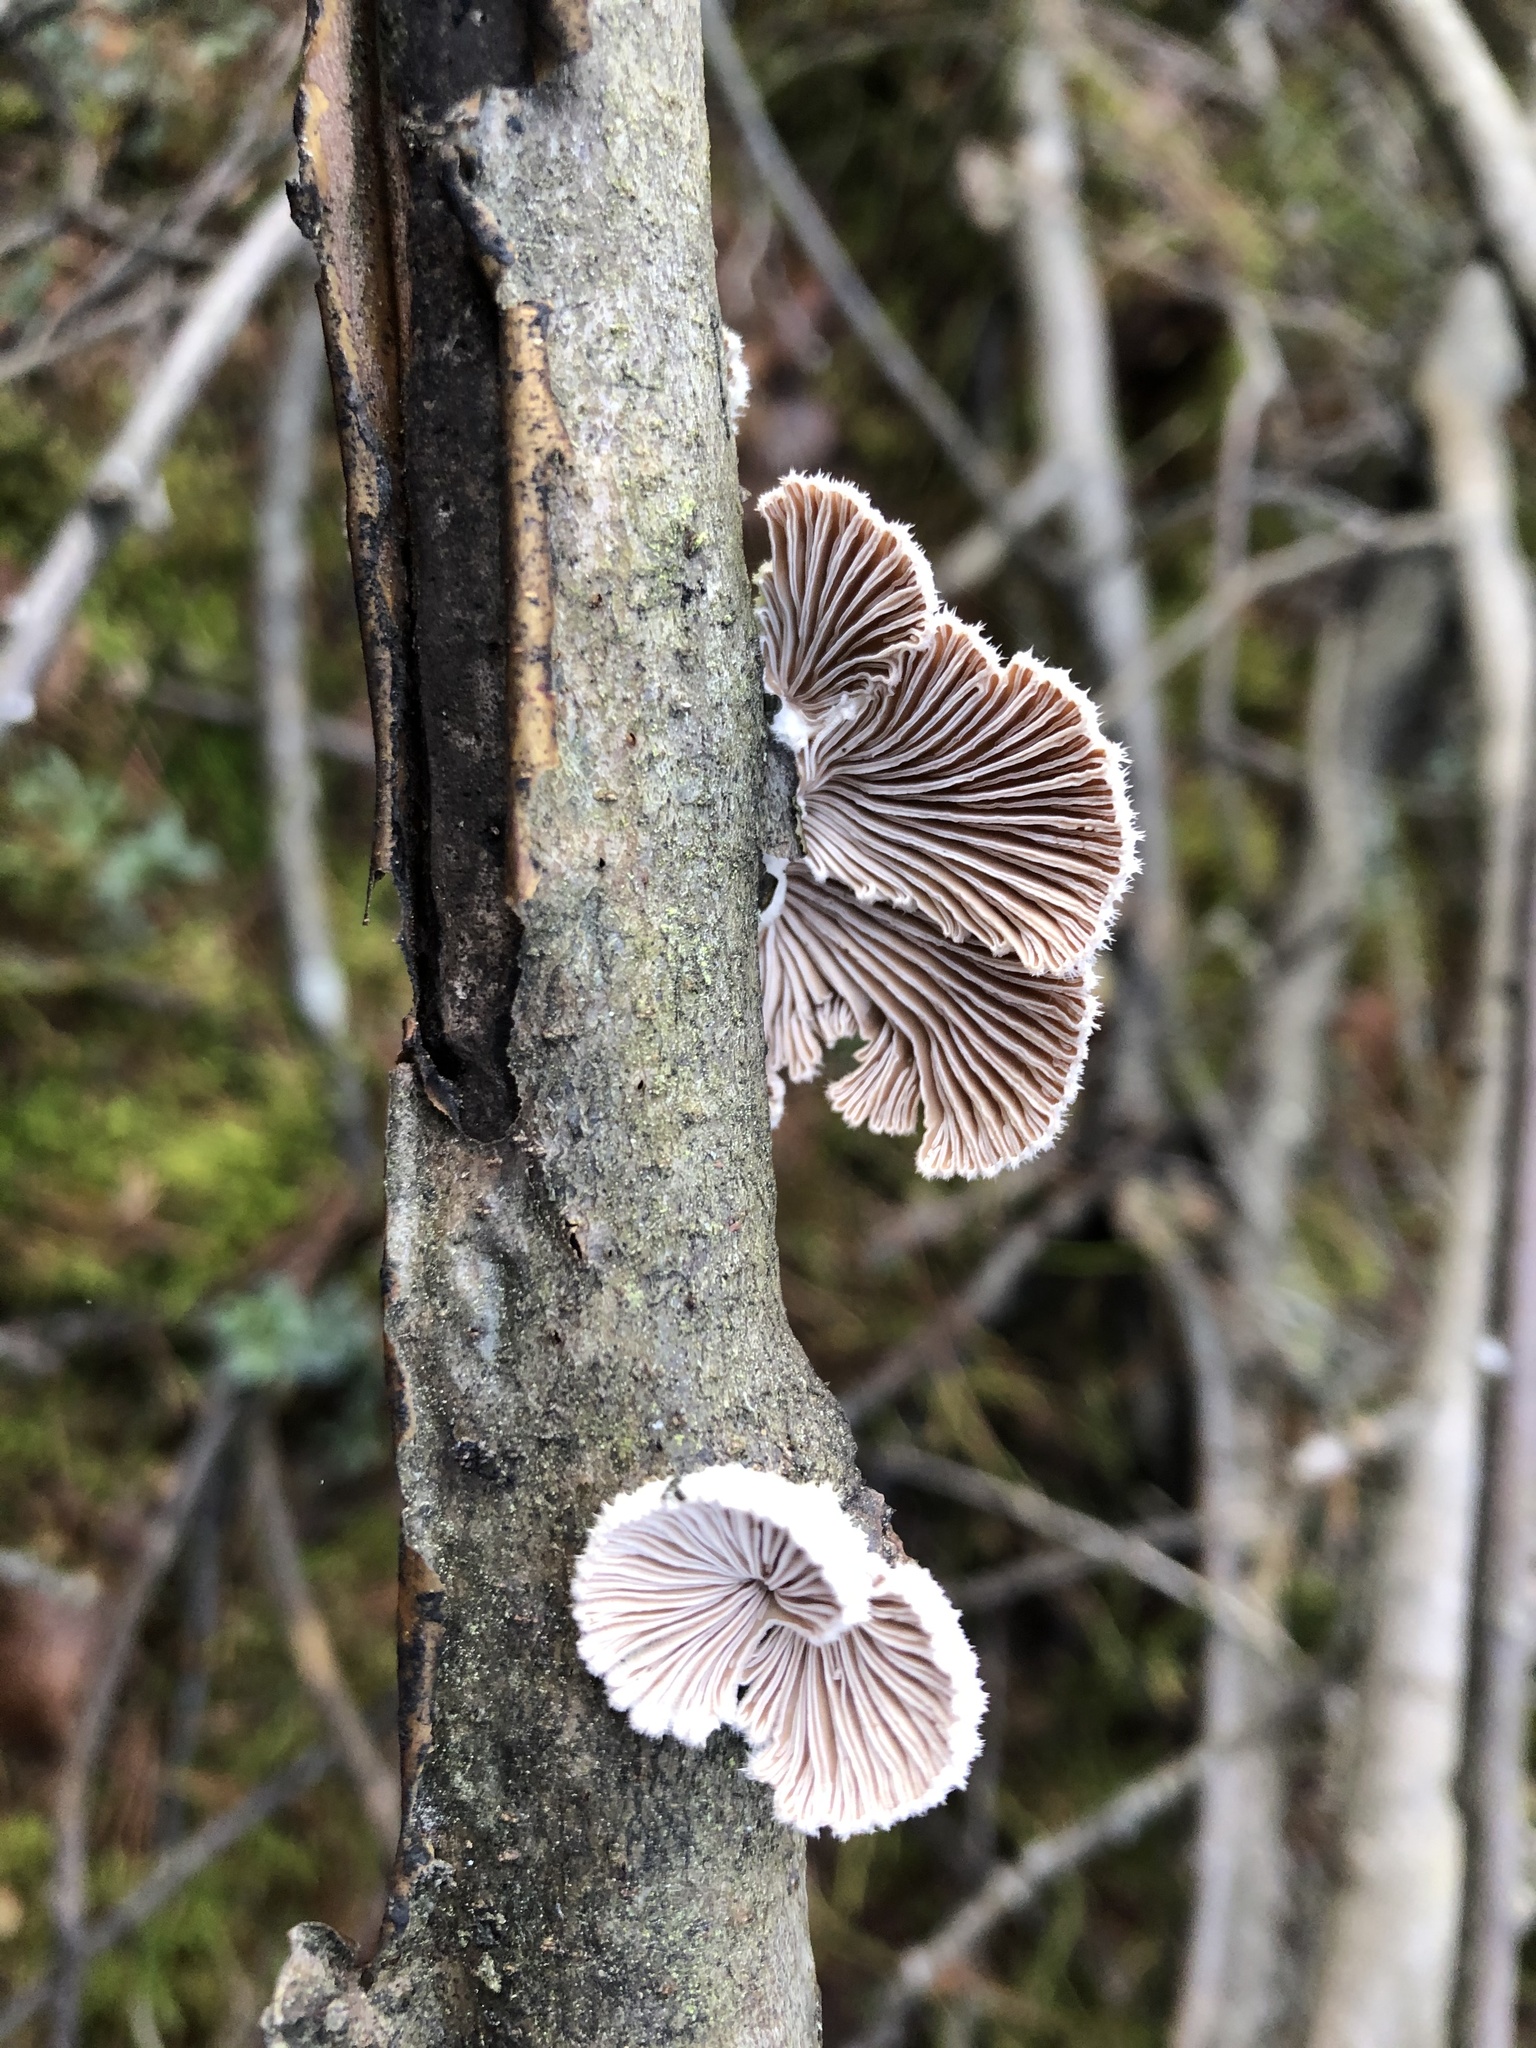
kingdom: Fungi
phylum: Basidiomycota
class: Agaricomycetes
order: Agaricales
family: Schizophyllaceae
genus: Schizophyllum
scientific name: Schizophyllum commune
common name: Common porecrust
